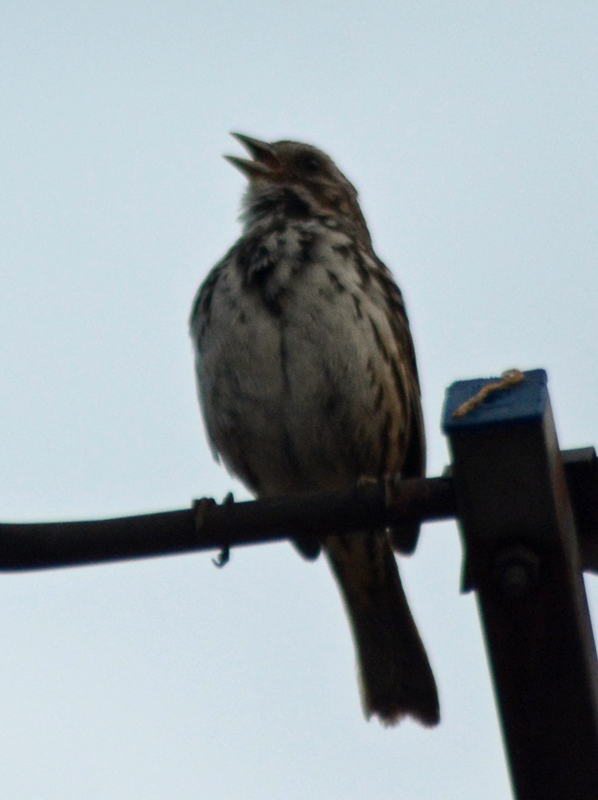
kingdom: Animalia
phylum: Chordata
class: Aves
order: Passeriformes
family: Passerellidae
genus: Melospiza
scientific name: Melospiza melodia
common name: Song sparrow
